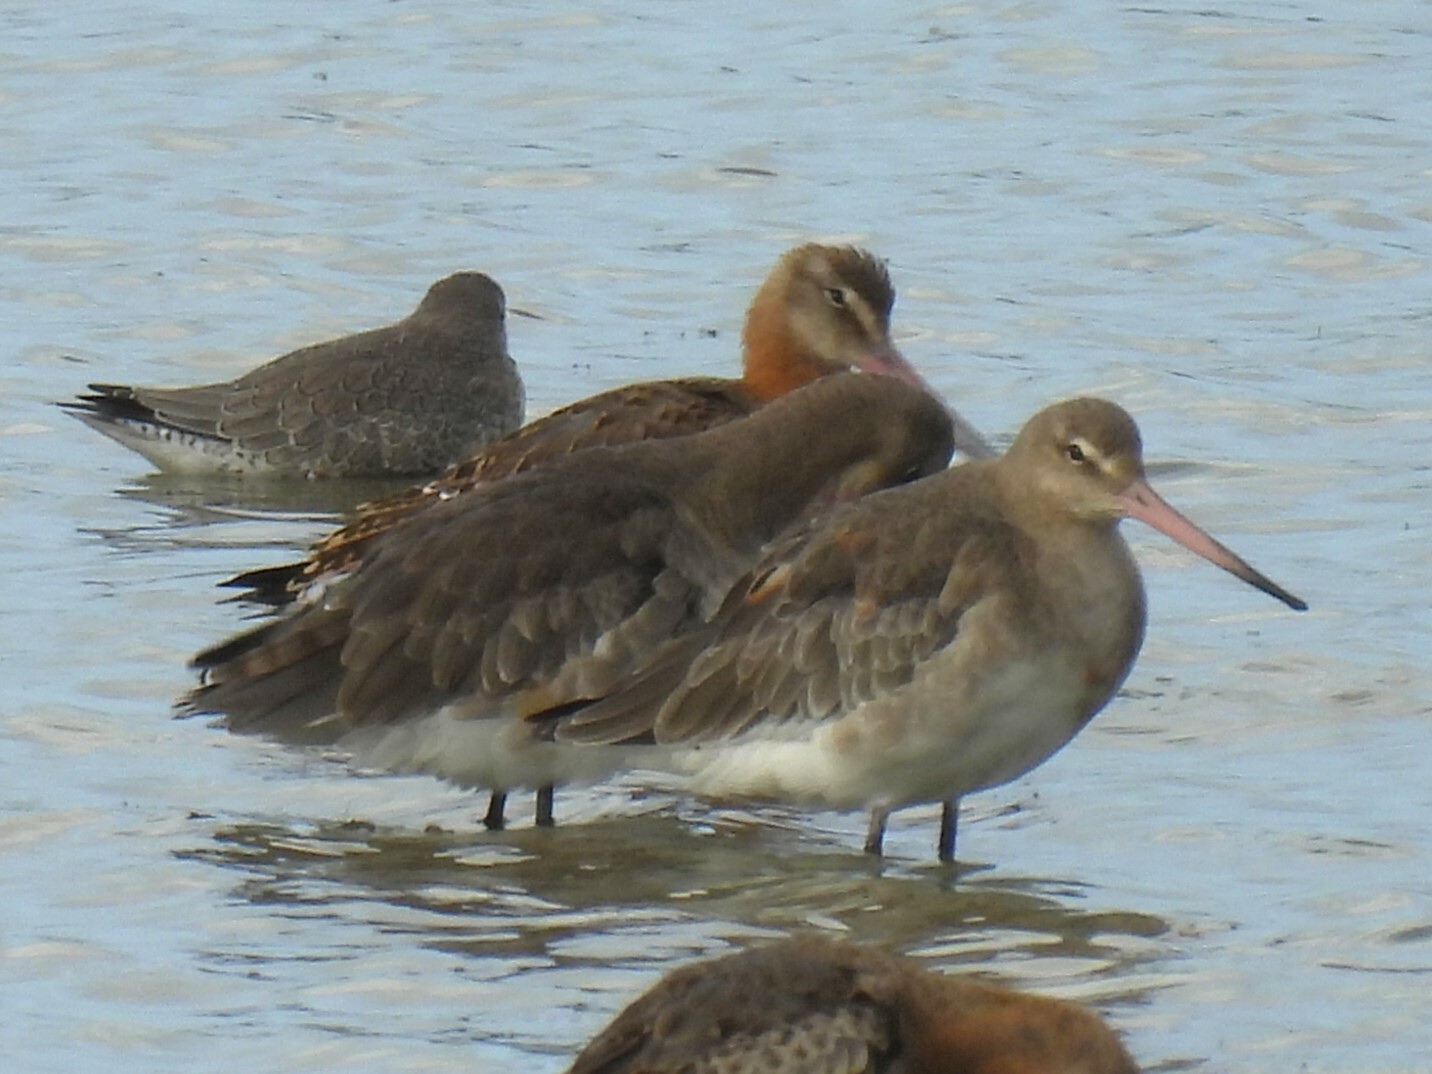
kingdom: Animalia
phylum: Chordata
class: Aves
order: Charadriiformes
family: Scolopacidae
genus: Limosa
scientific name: Limosa limosa
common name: Black-tailed godwit
